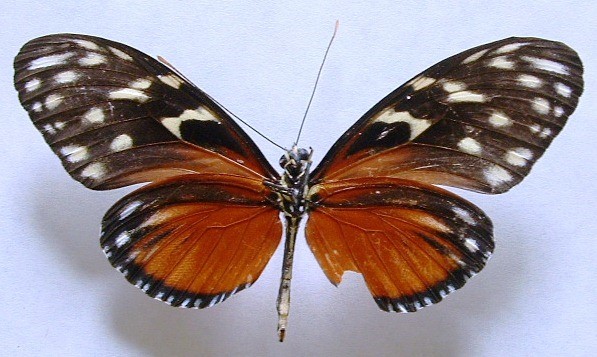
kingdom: Animalia
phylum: Arthropoda
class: Insecta
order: Lepidoptera
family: Nymphalidae
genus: Heliconius
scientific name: Heliconius hecale
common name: Tiger longwing
